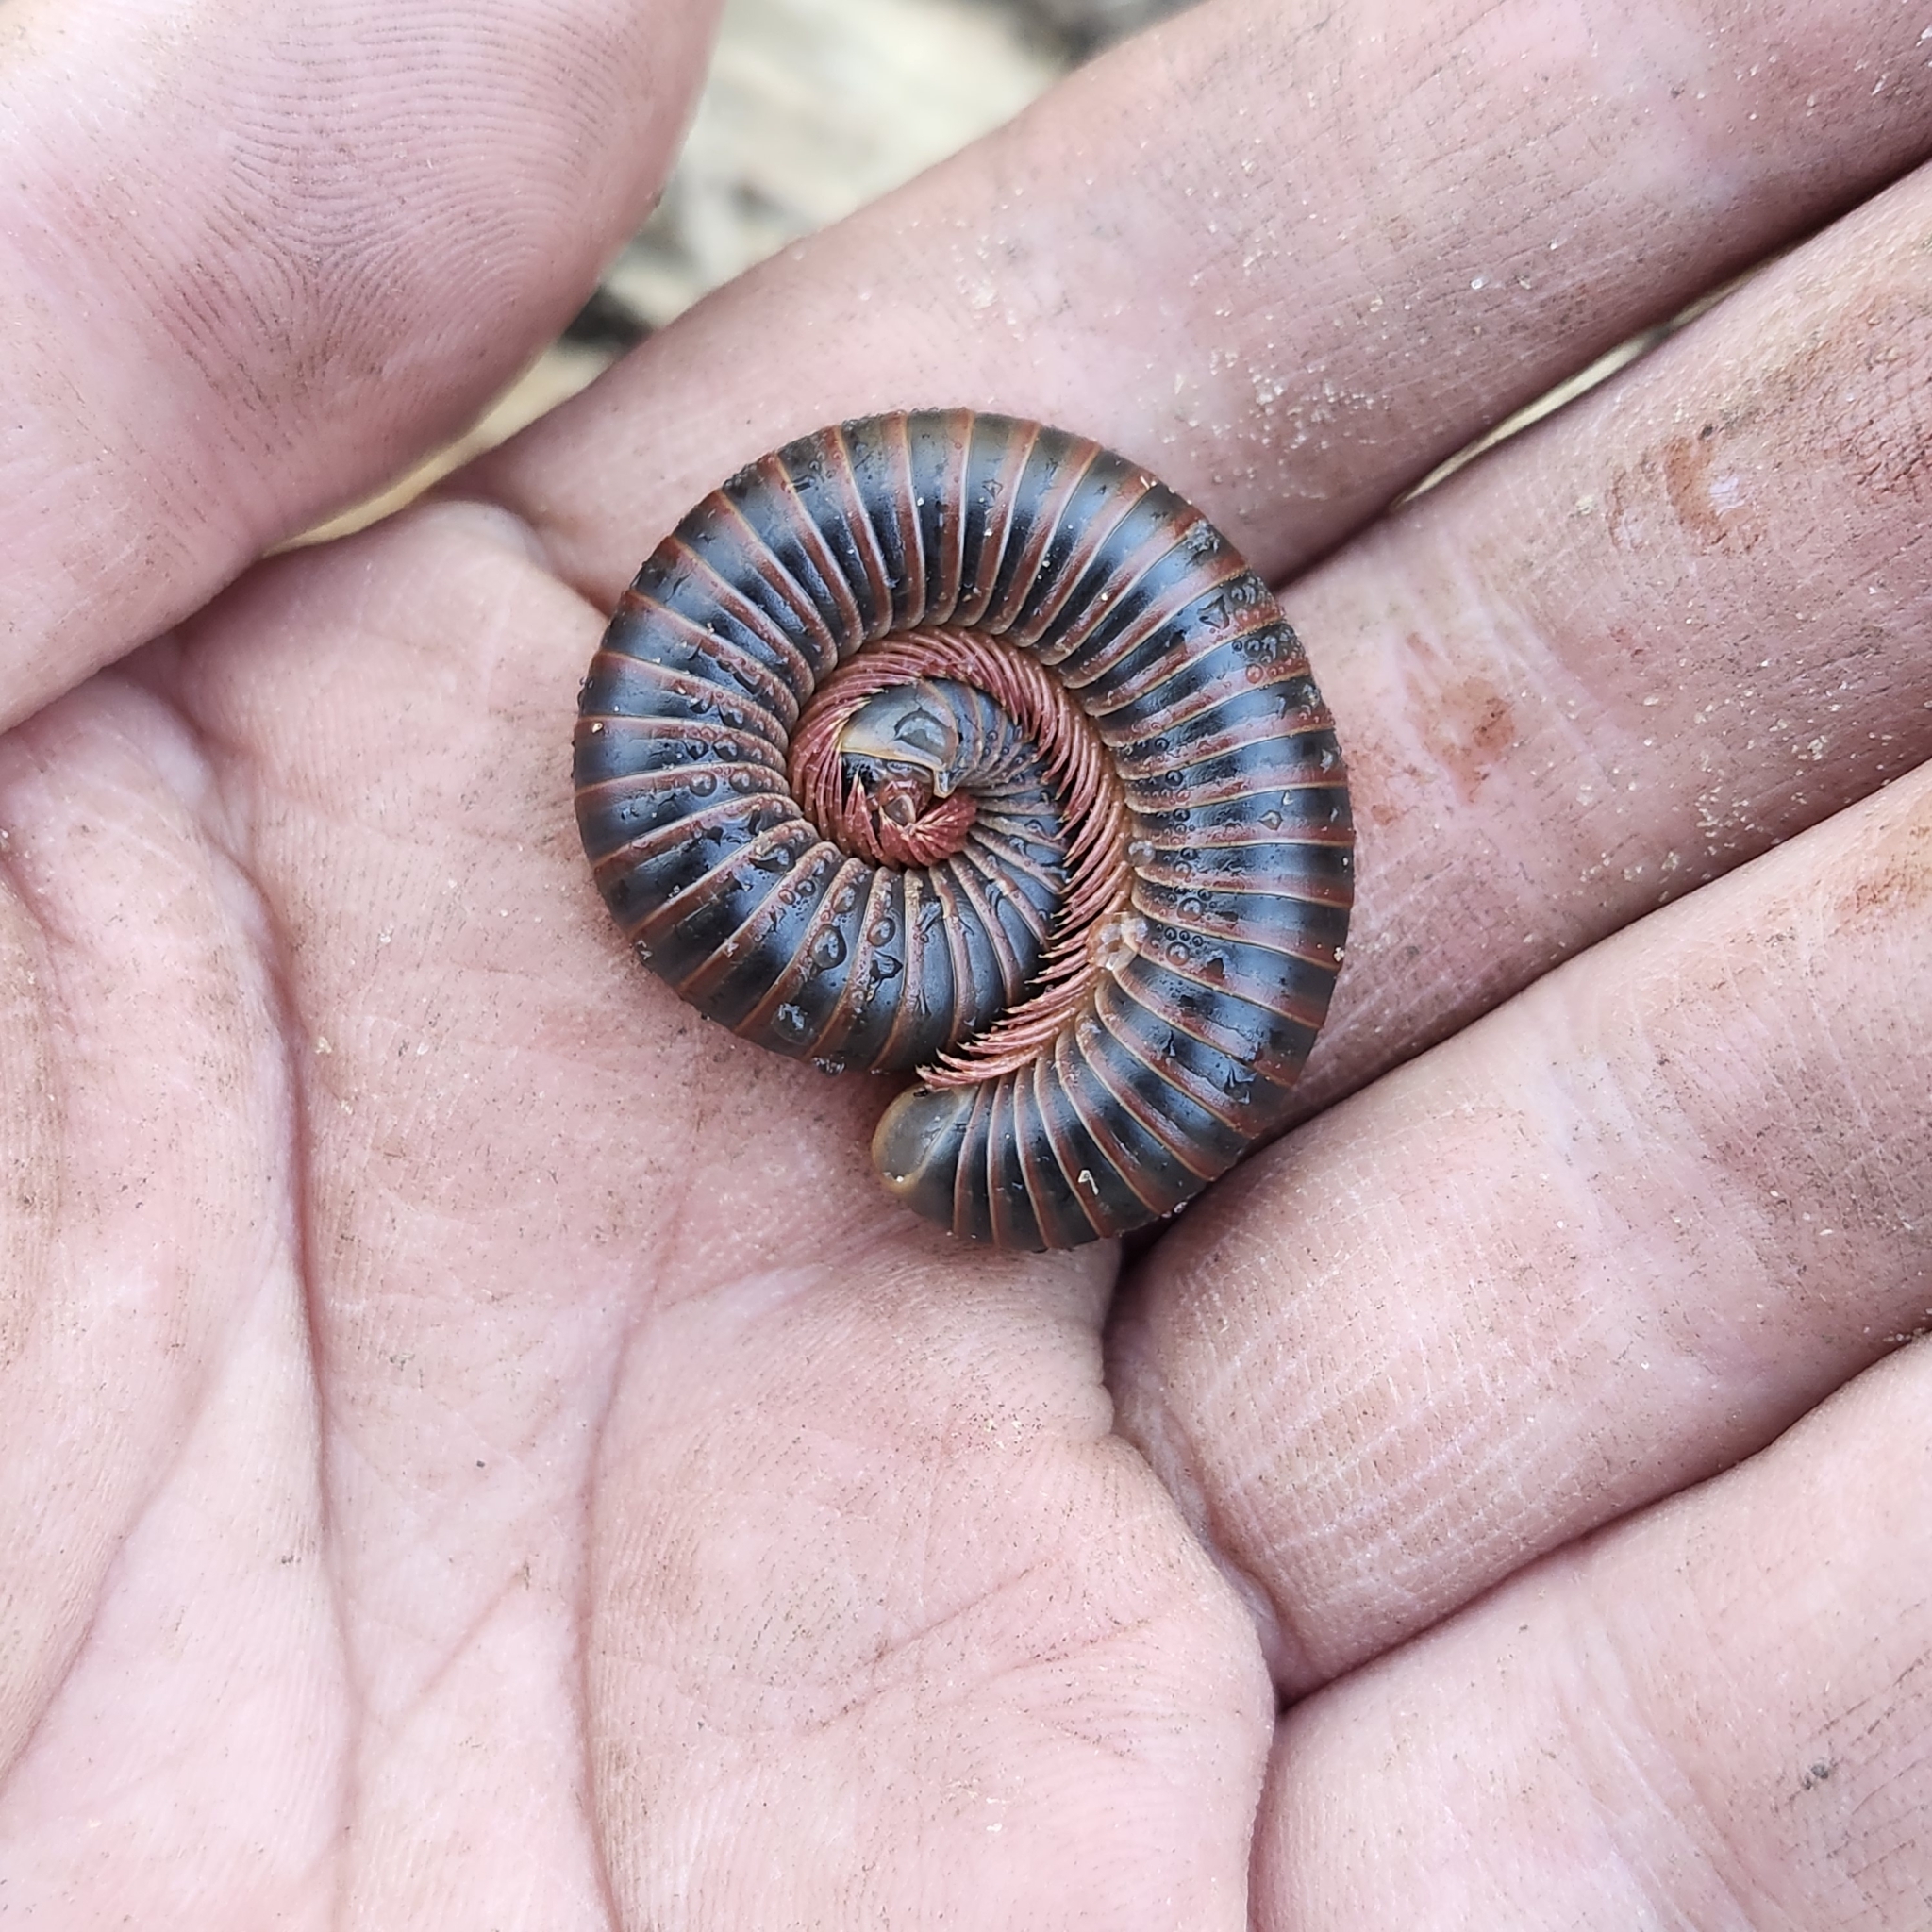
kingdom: Animalia
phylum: Arthropoda
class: Diplopoda
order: Spirobolida
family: Spirobolidae
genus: Narceus
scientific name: Narceus
